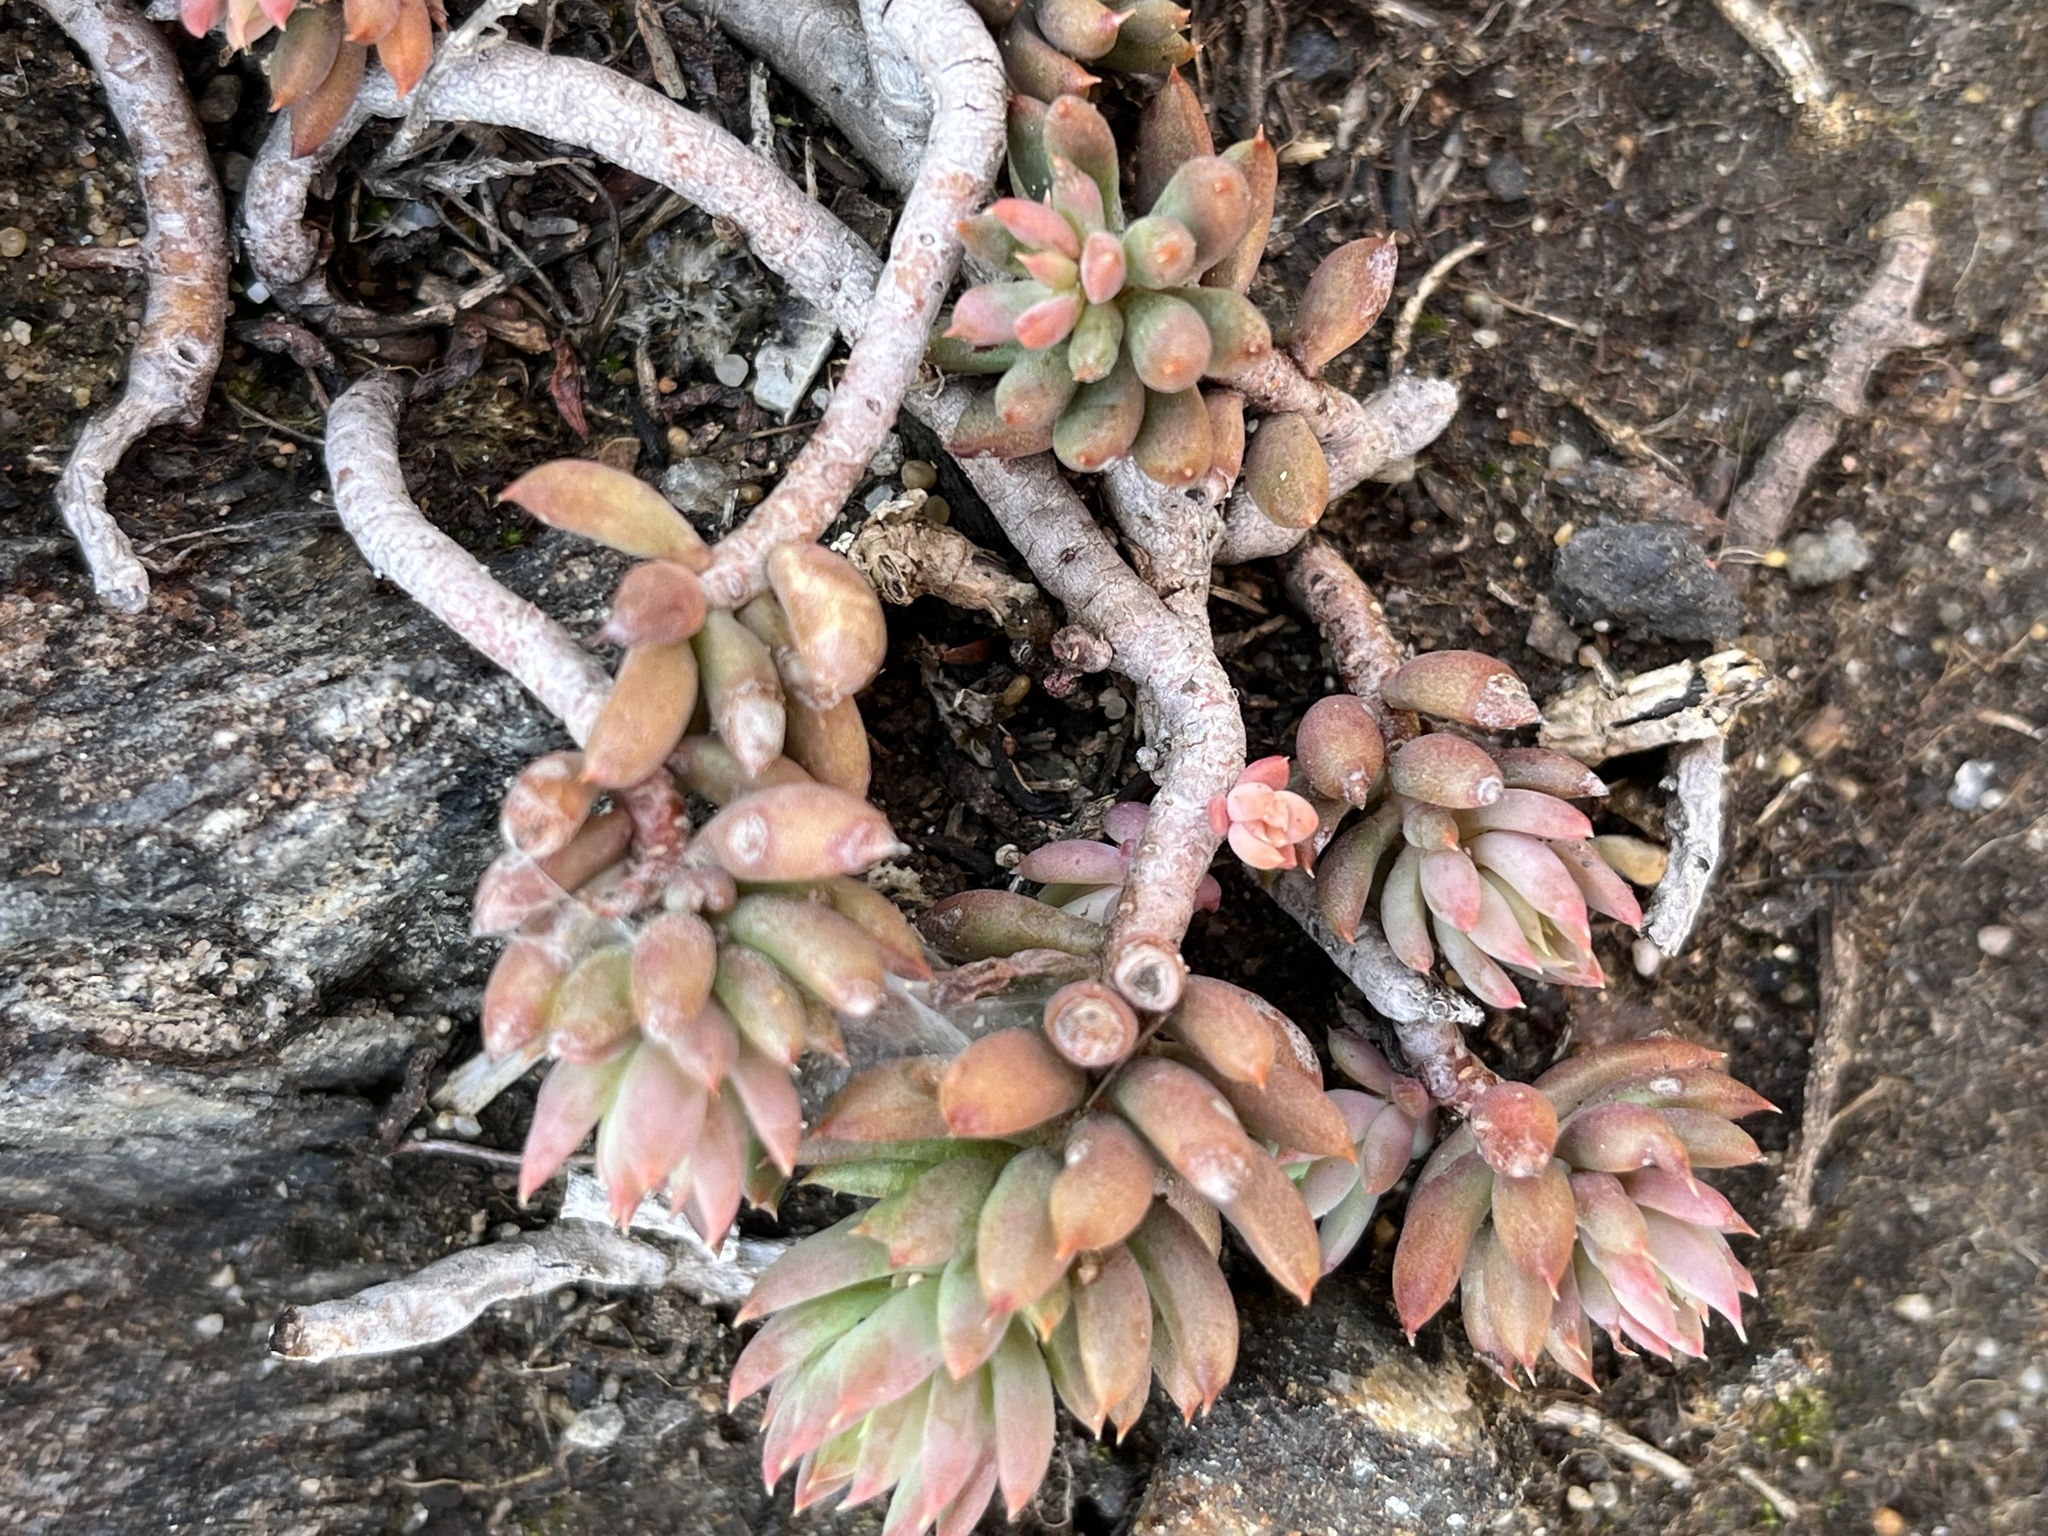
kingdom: Plantae
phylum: Tracheophyta
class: Magnoliopsida
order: Saxifragales
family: Crassulaceae
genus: Sedum
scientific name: Sedum adolphi
